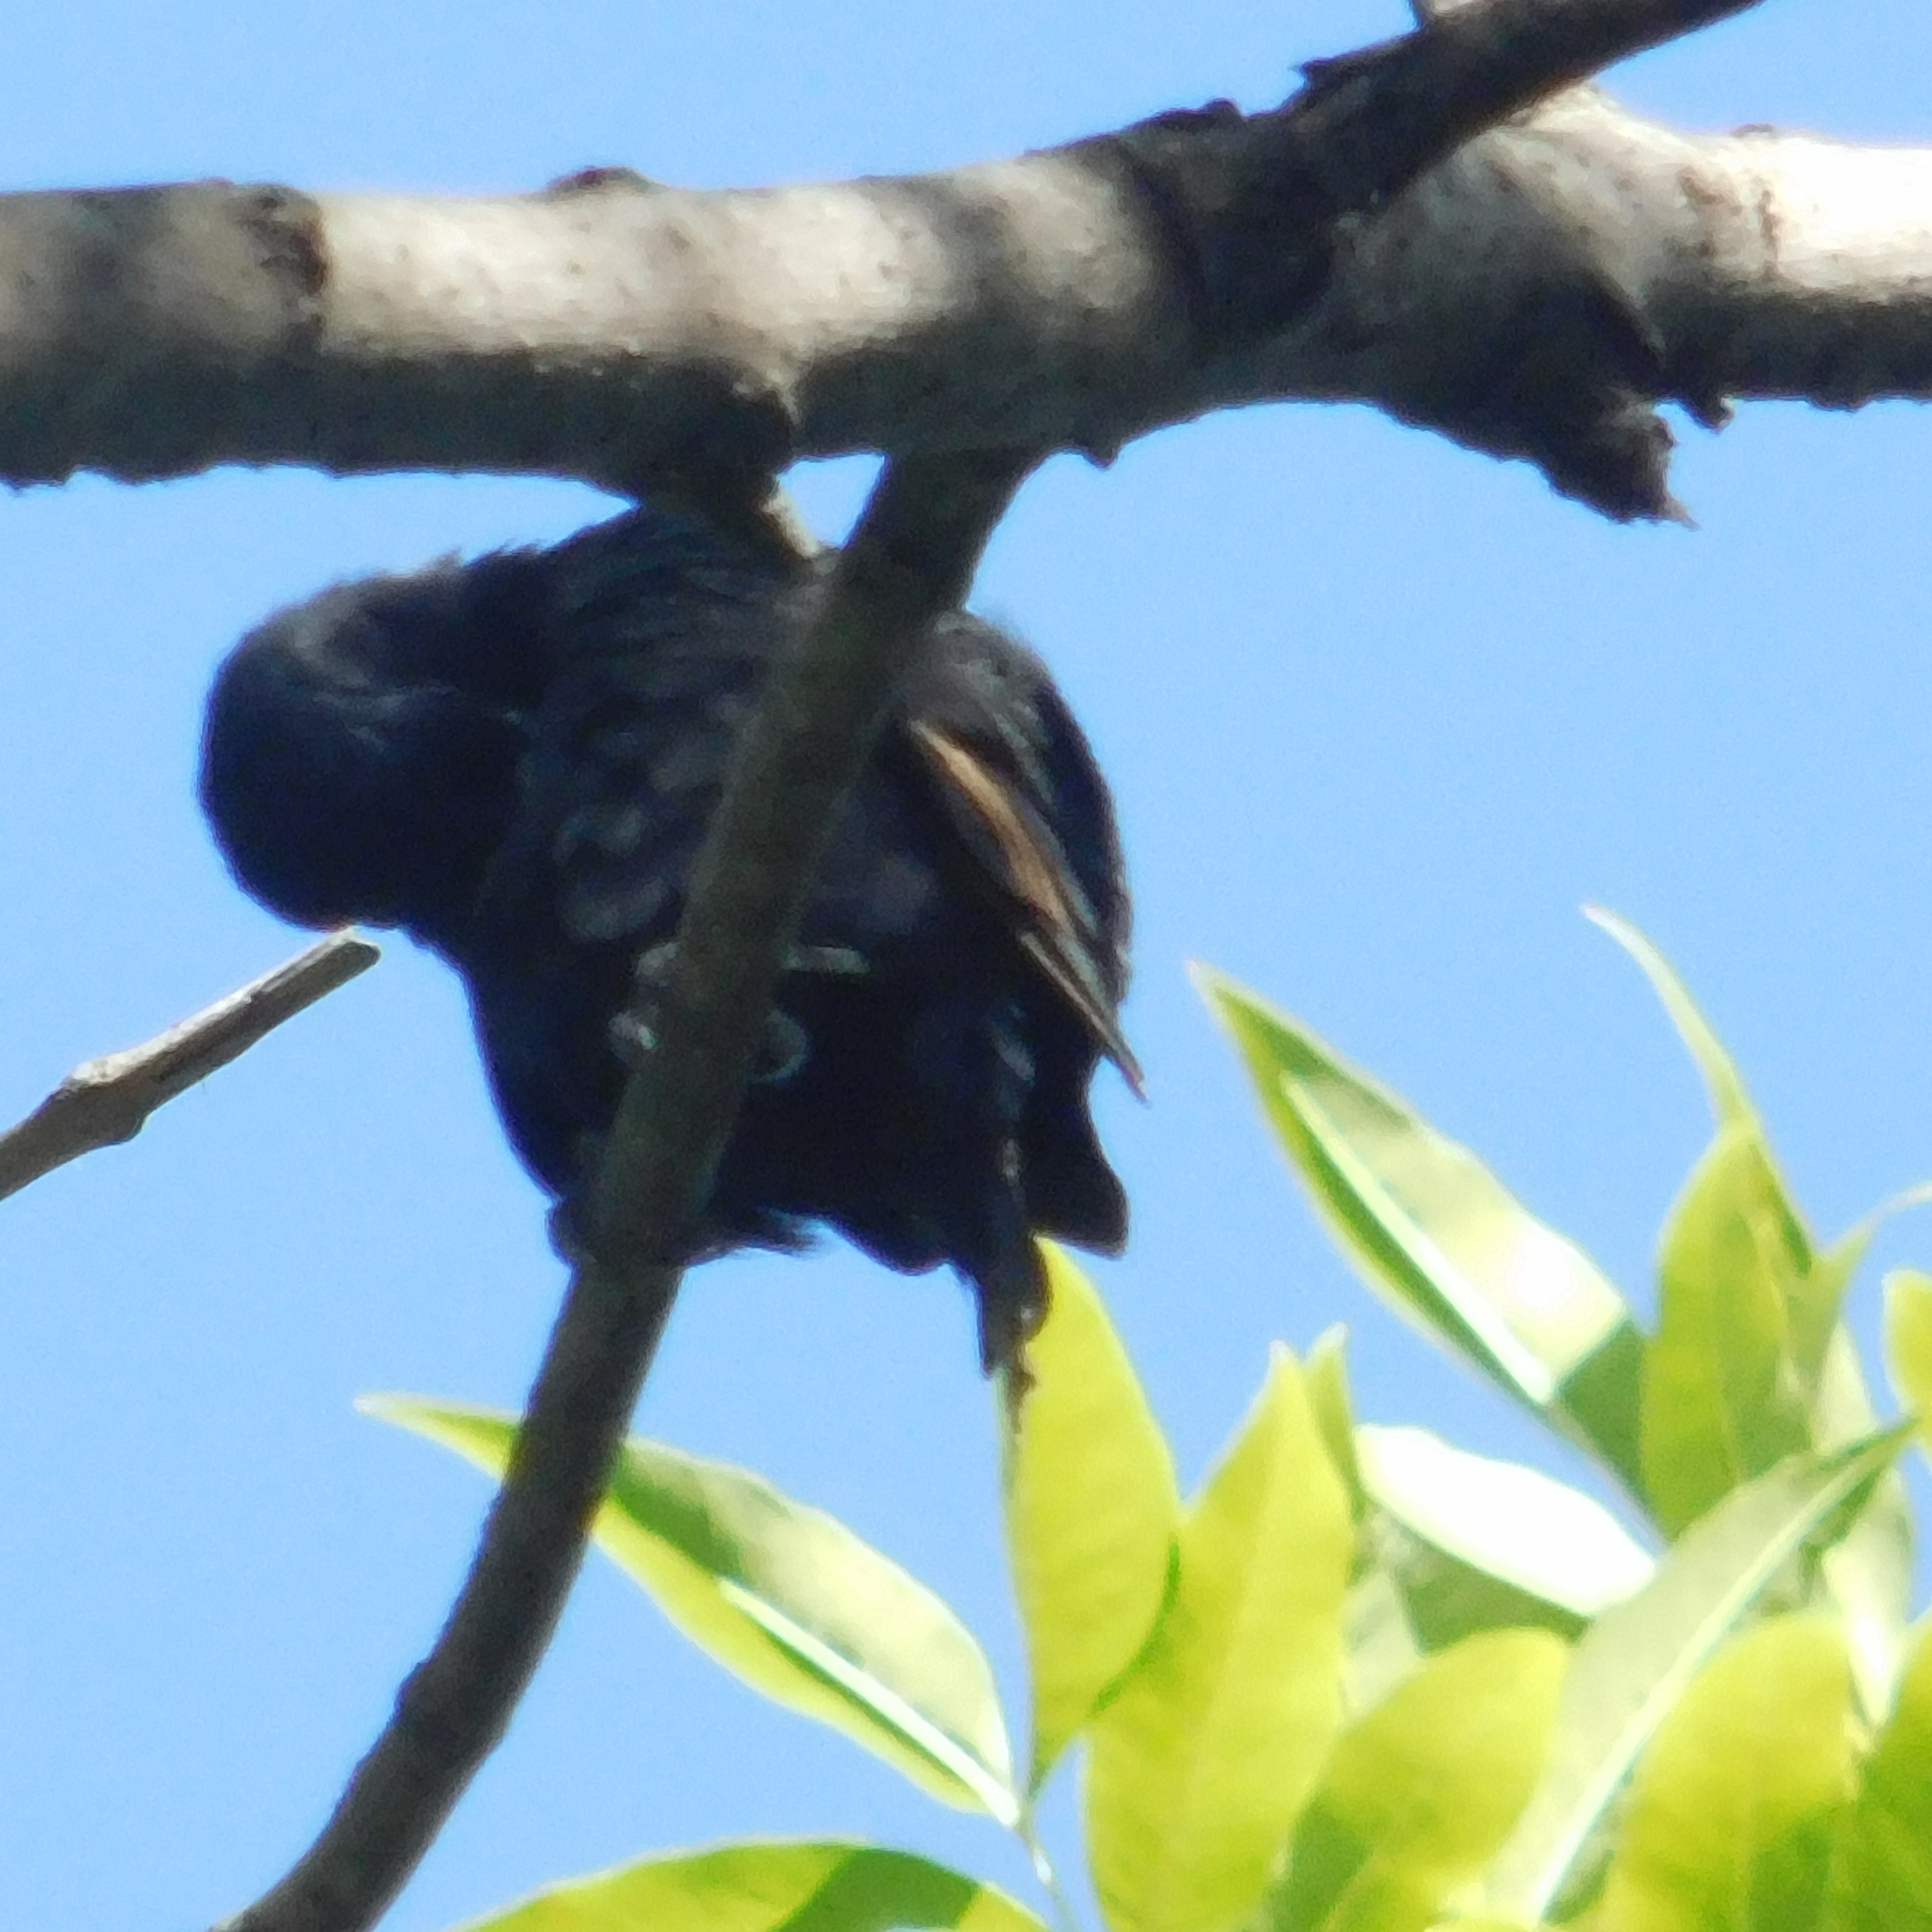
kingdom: Animalia
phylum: Chordata
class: Aves
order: Passeriformes
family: Icteridae
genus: Molothrus
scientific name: Molothrus rufoaxillaris
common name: Screaming cowbird
